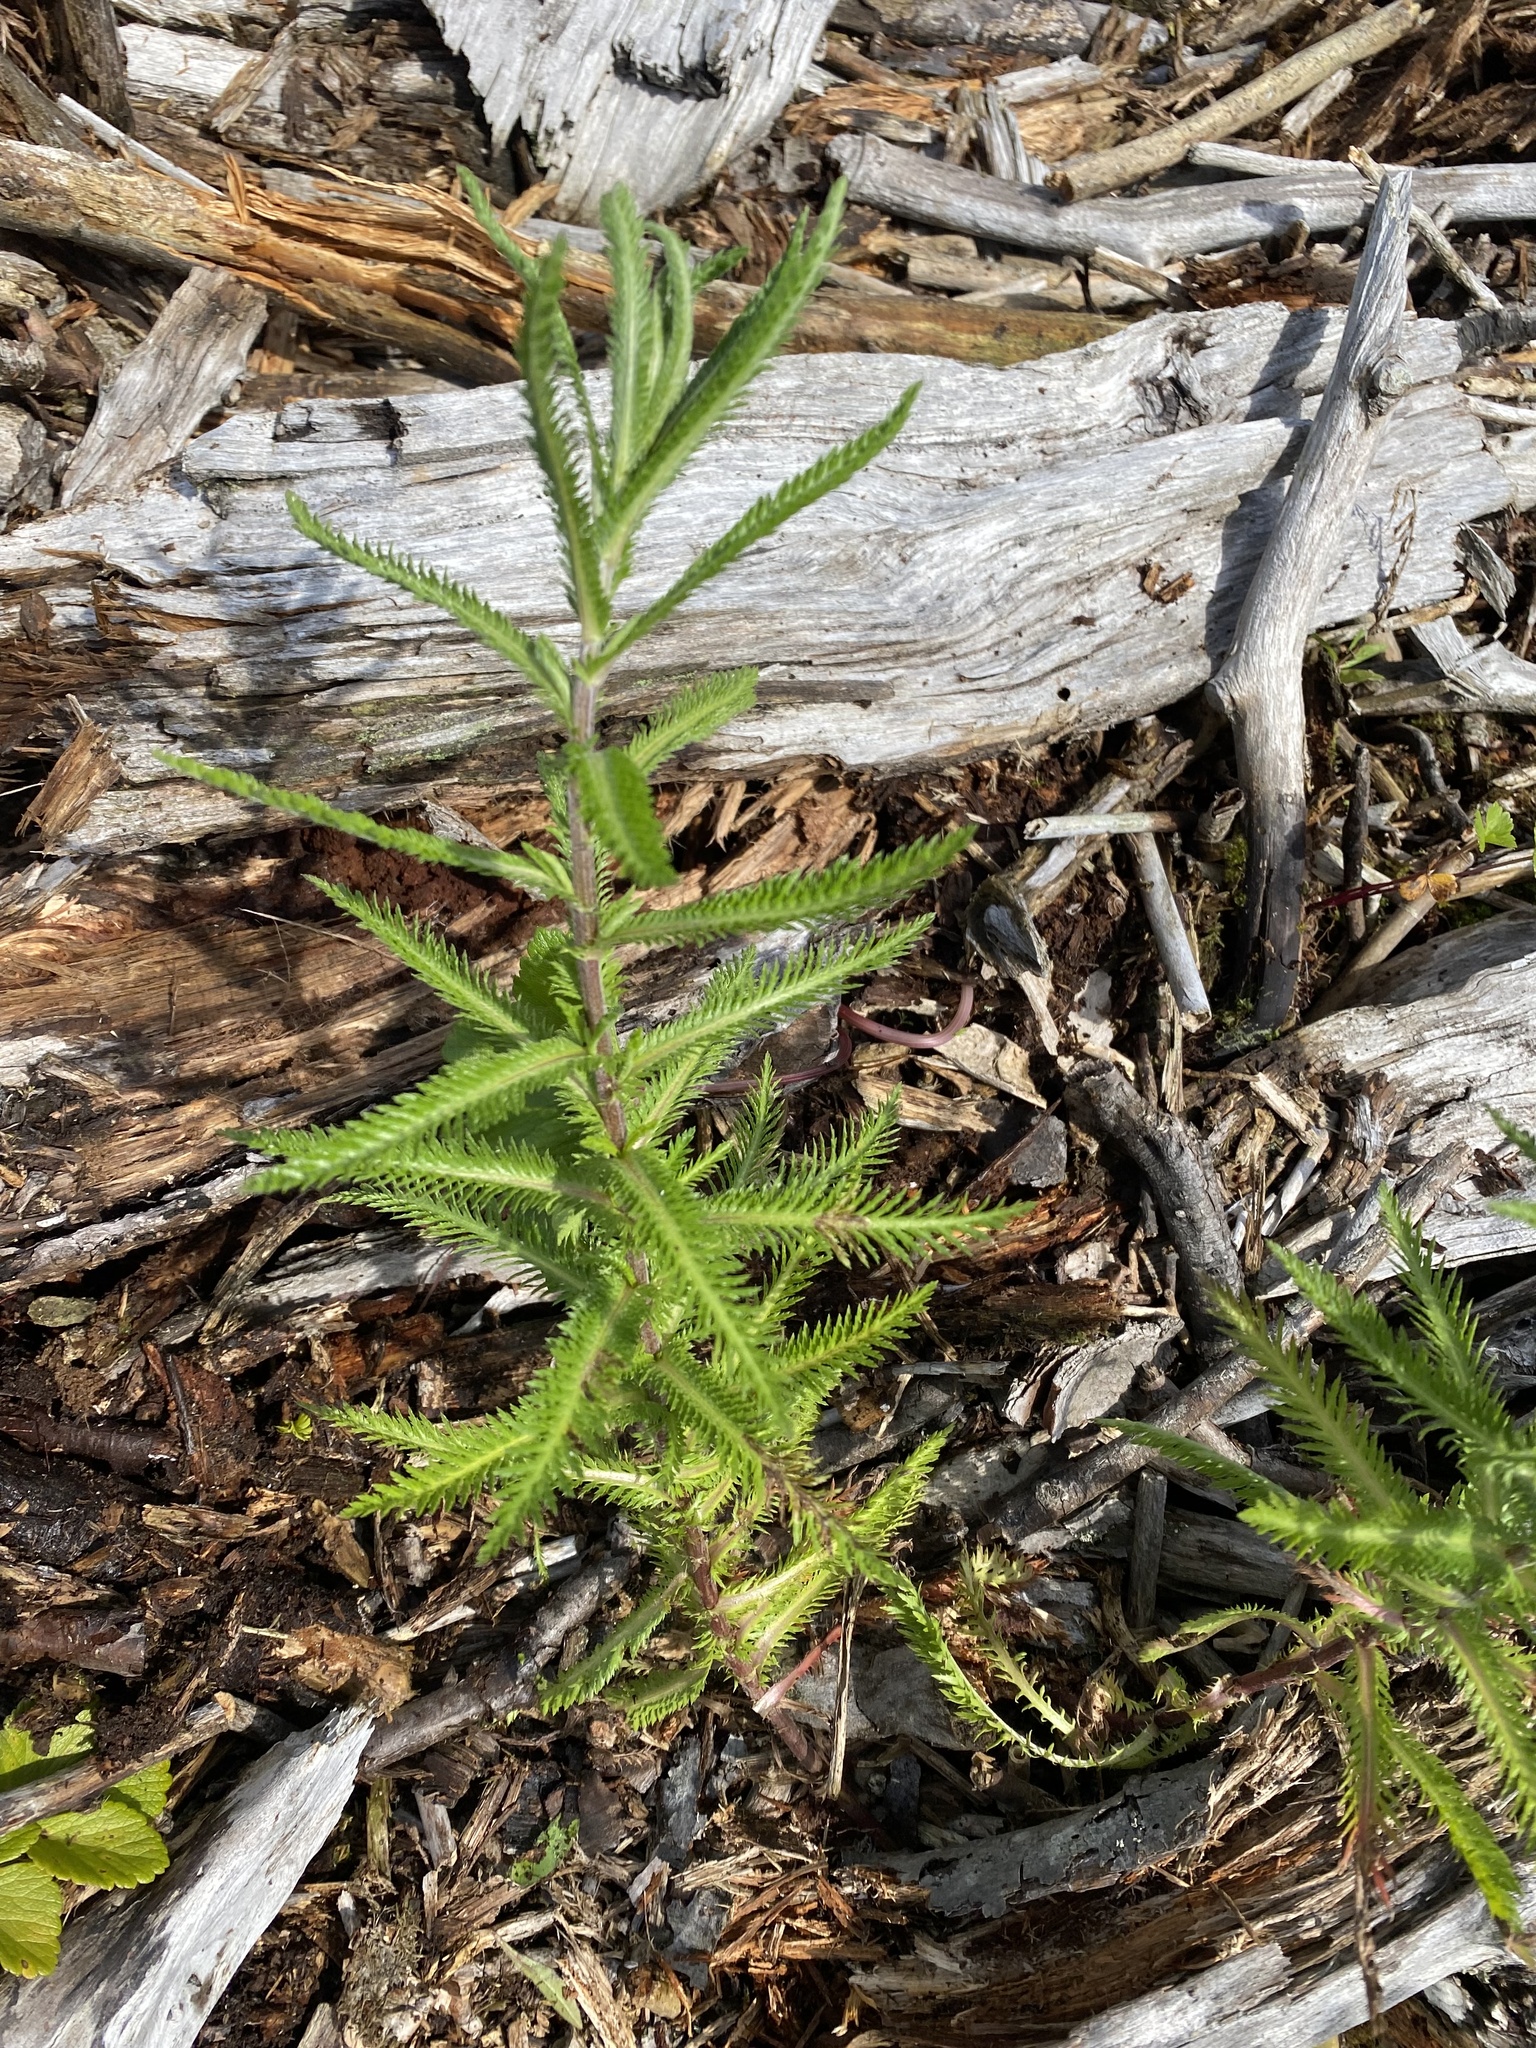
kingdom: Plantae
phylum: Tracheophyta
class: Magnoliopsida
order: Asterales
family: Asteraceae
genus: Achillea
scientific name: Achillea alpina
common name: Siberian yarrow
